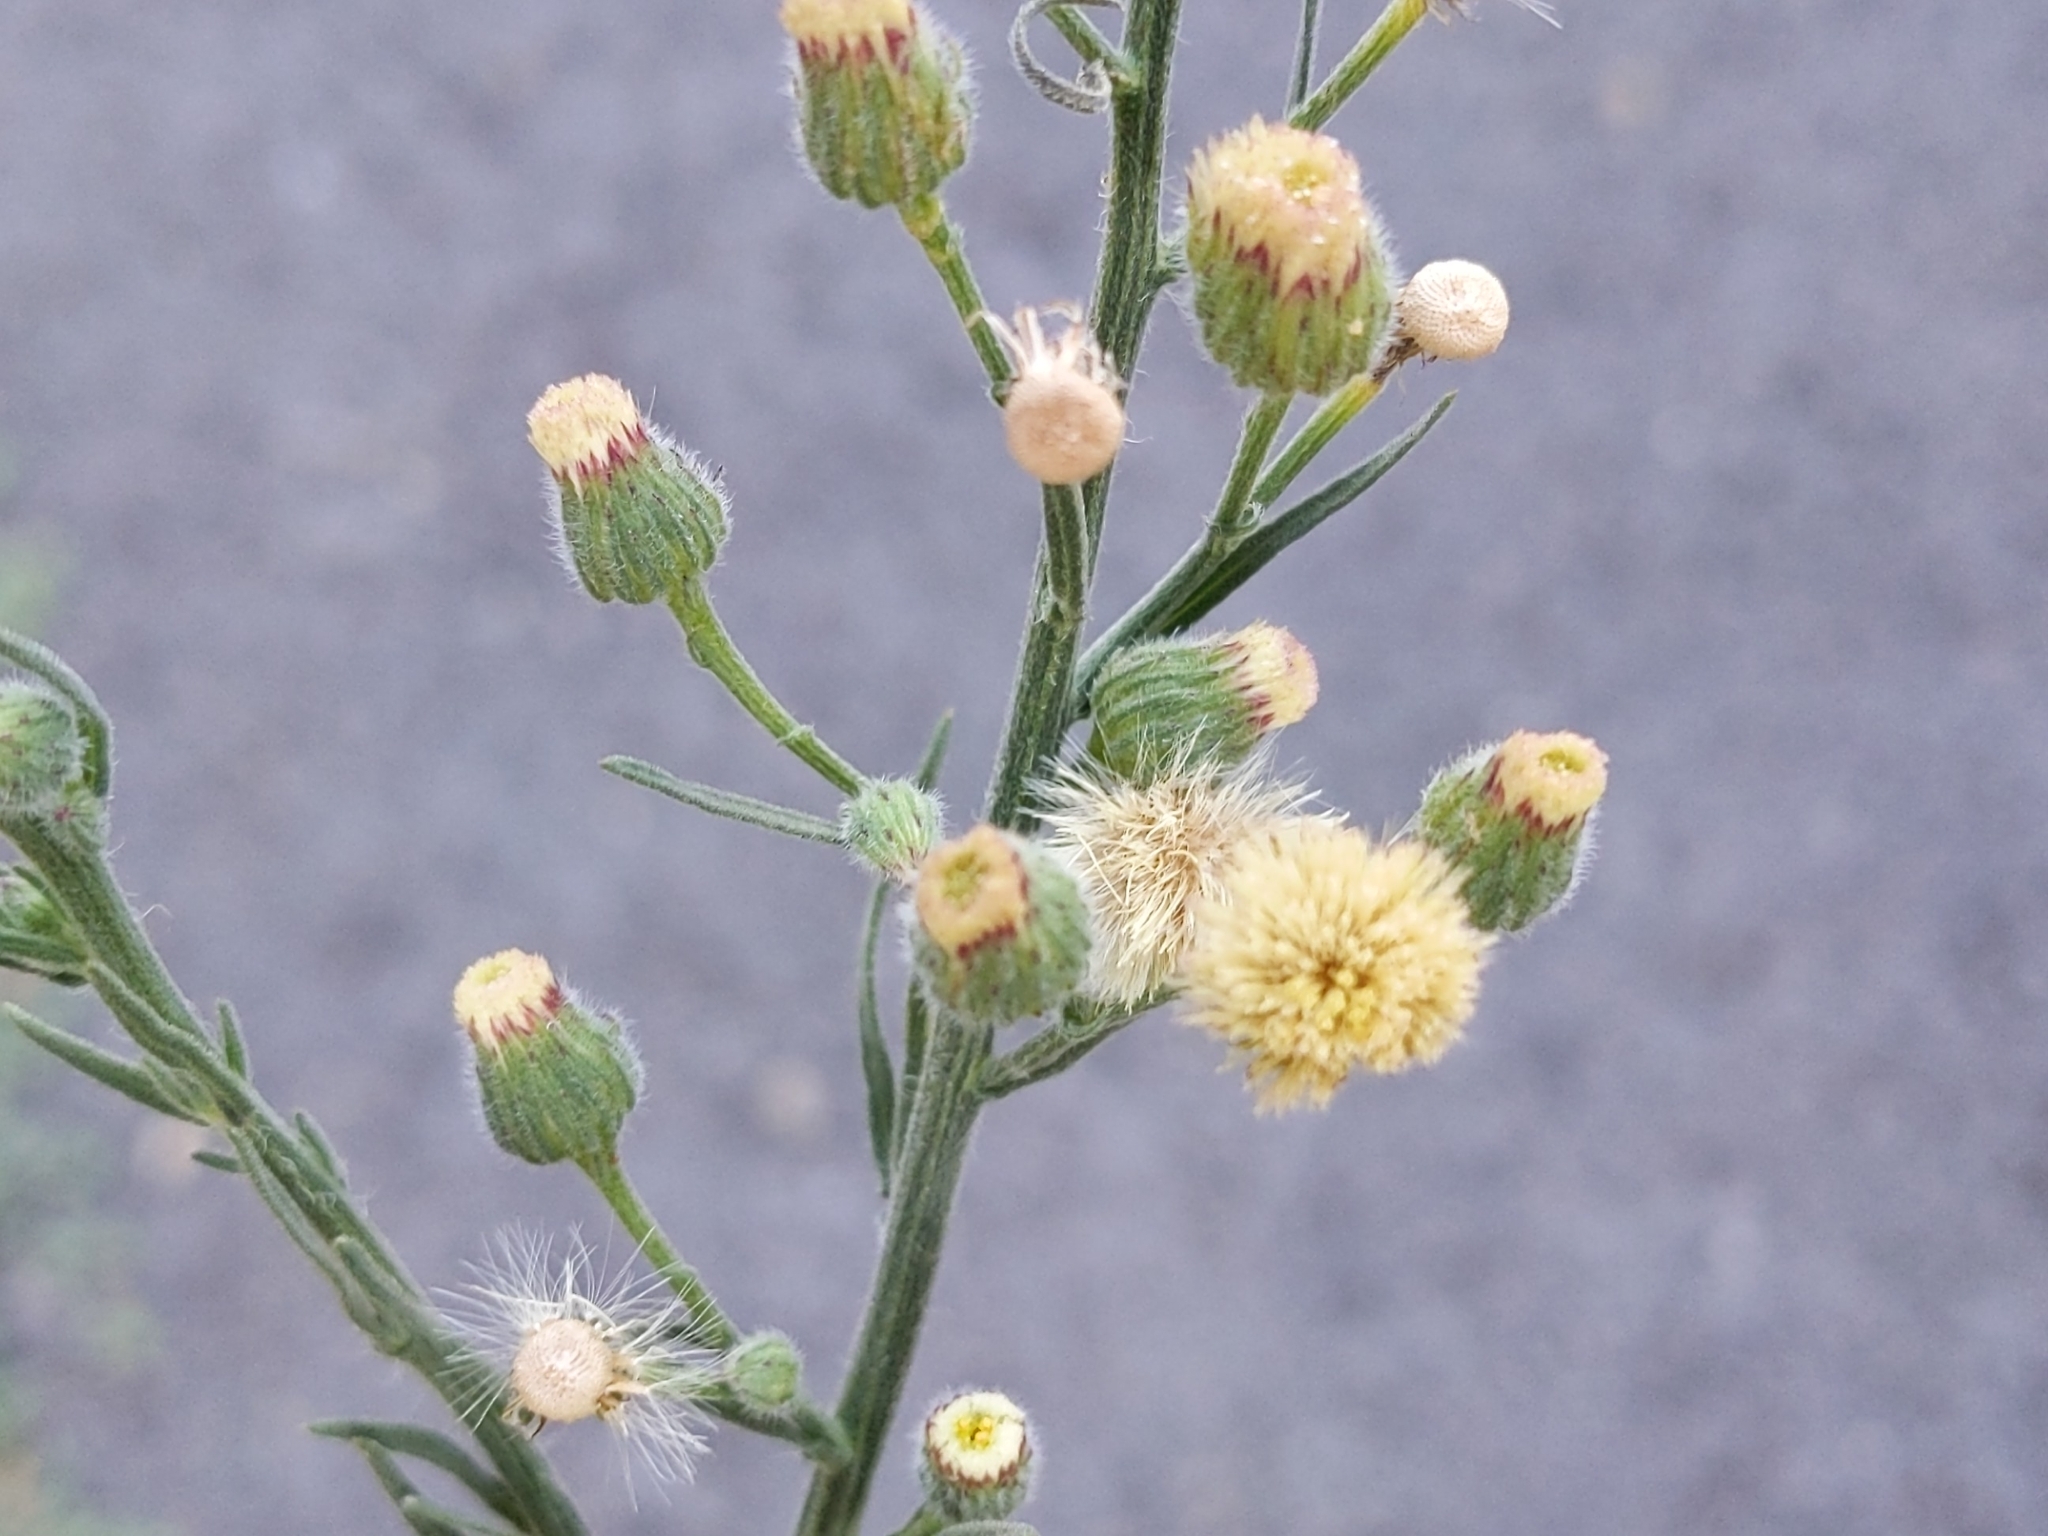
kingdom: Plantae
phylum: Tracheophyta
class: Magnoliopsida
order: Asterales
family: Asteraceae
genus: Erigeron
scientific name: Erigeron bonariensis
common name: Argentine fleabane
